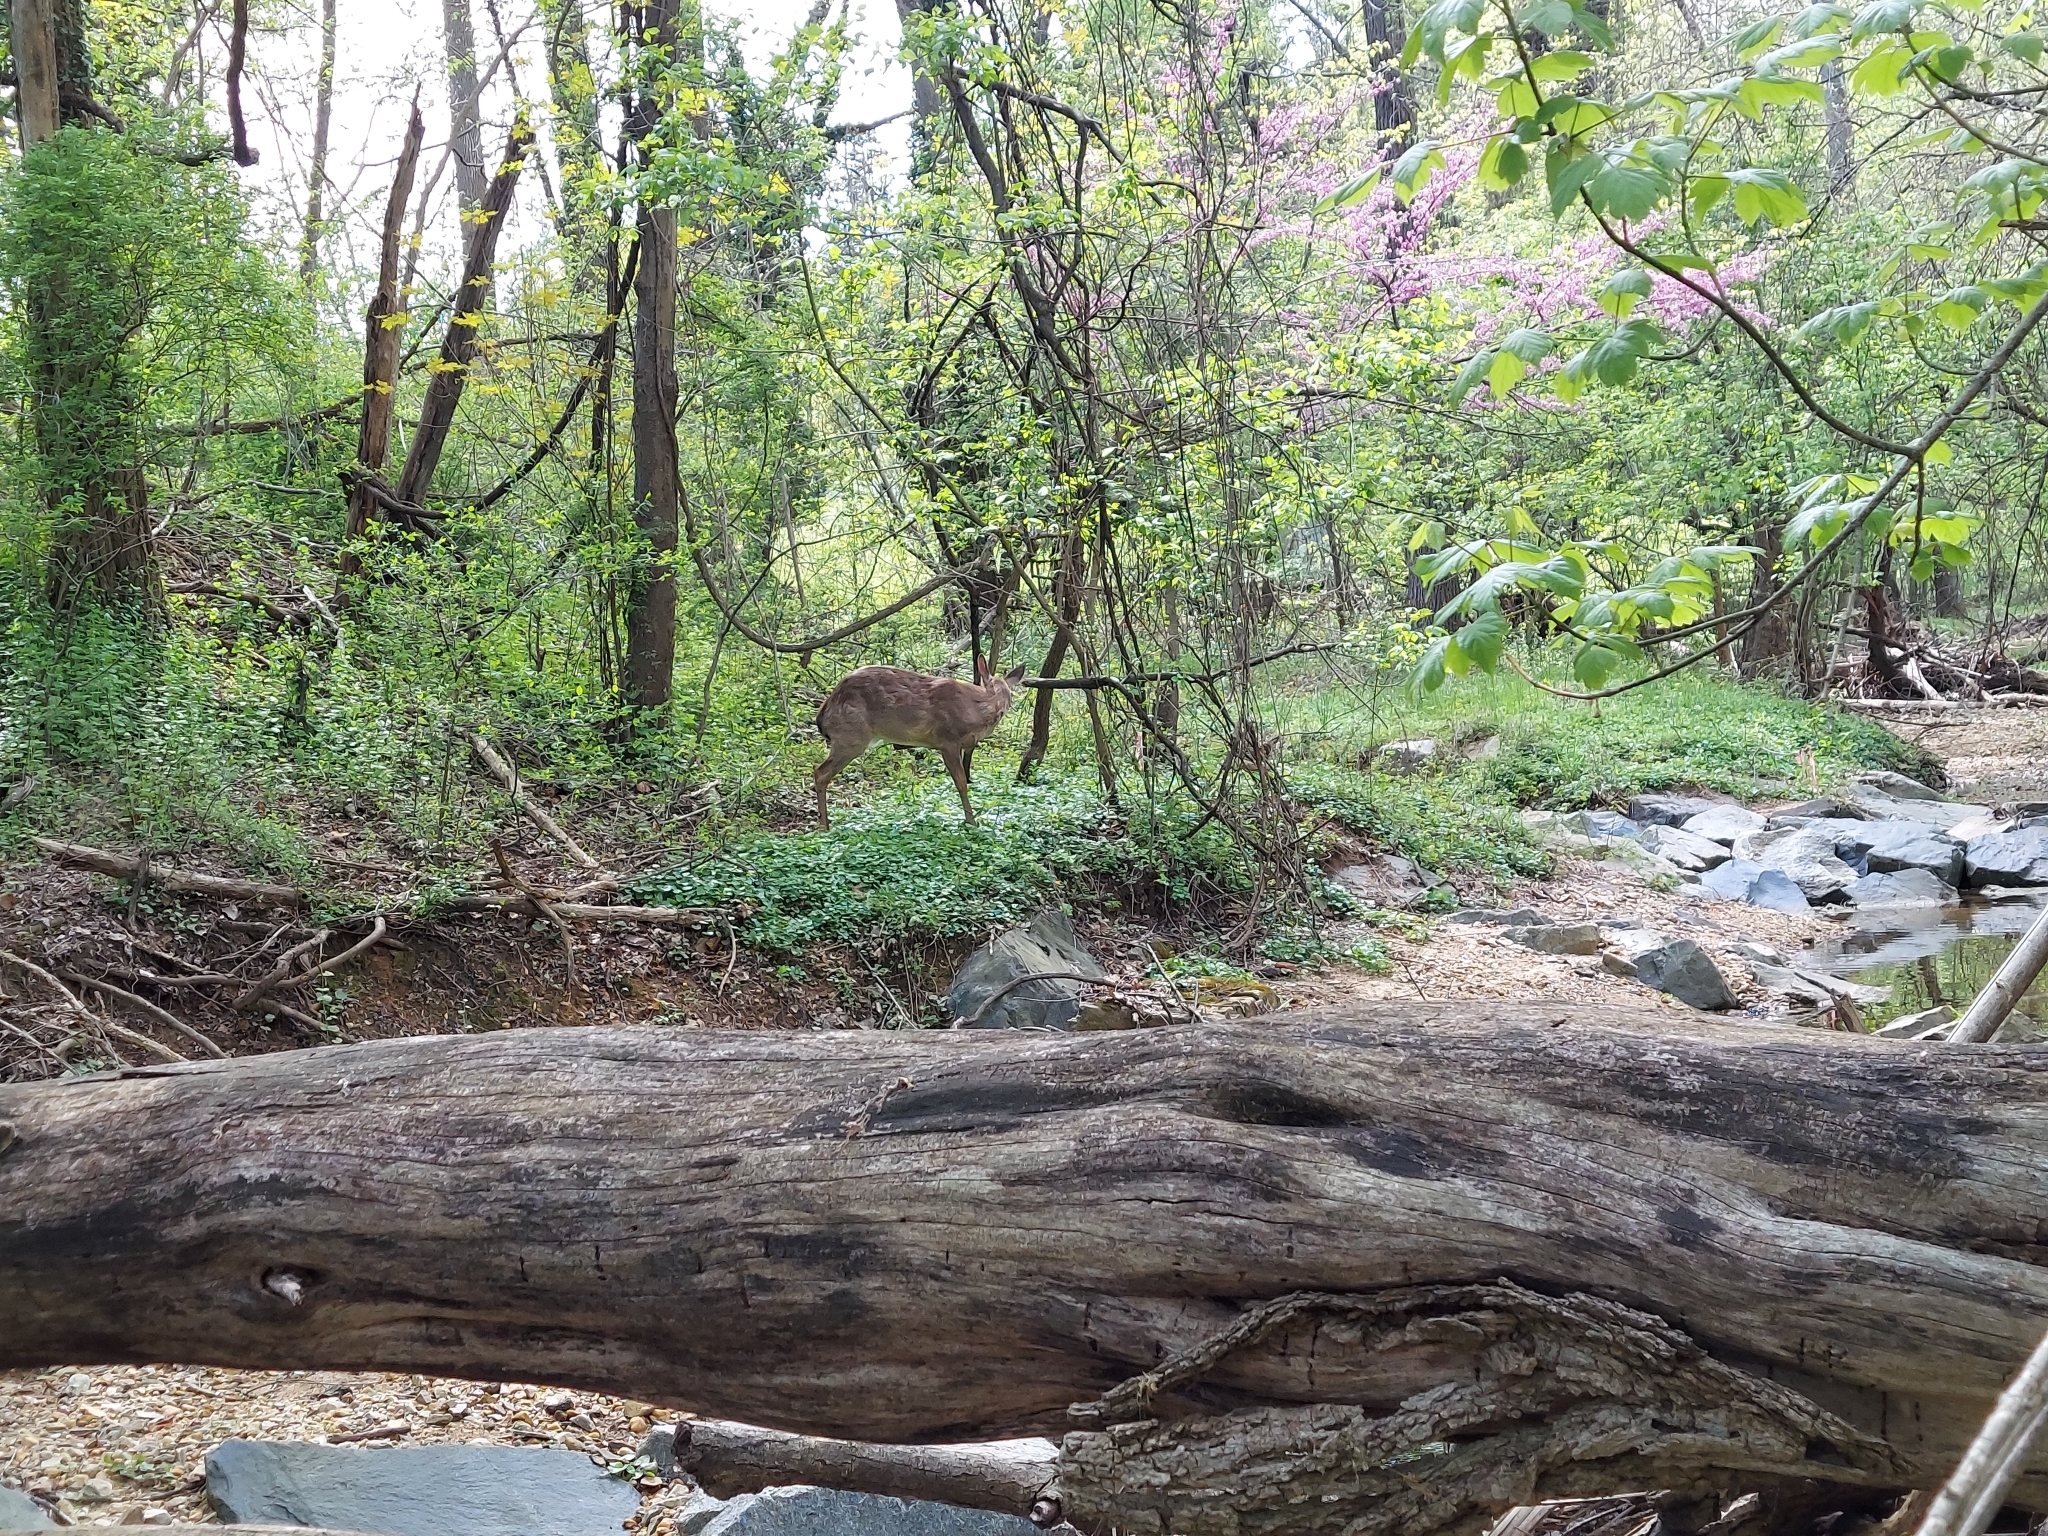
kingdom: Animalia
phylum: Chordata
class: Mammalia
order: Artiodactyla
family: Cervidae
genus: Odocoileus
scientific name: Odocoileus virginianus
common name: White-tailed deer
